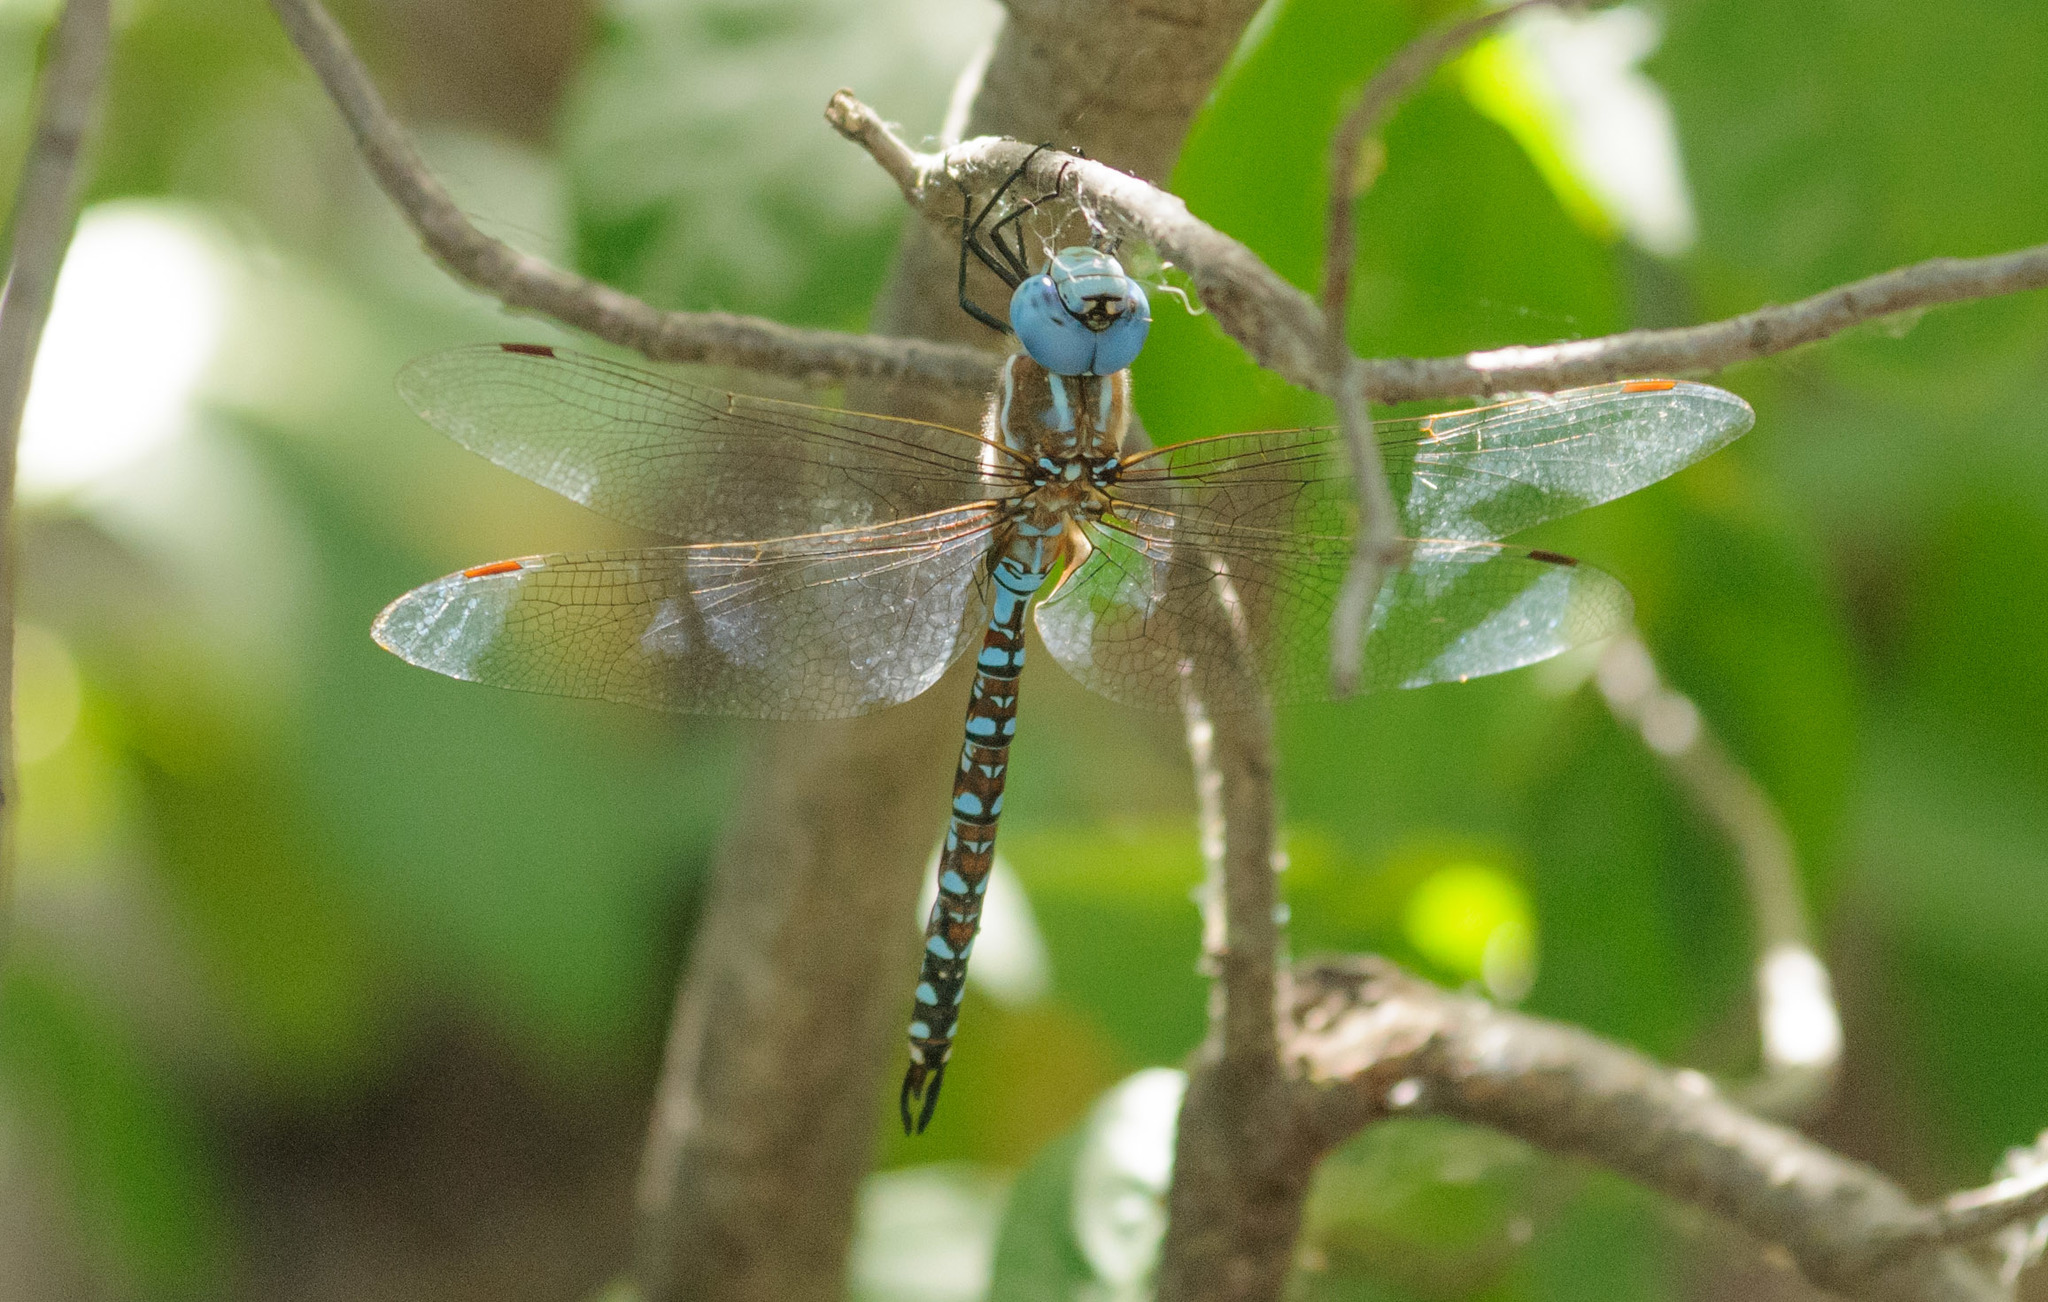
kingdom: Animalia
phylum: Arthropoda
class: Insecta
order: Odonata
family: Aeshnidae
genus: Rhionaeschna
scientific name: Rhionaeschna multicolor
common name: Blue-eyed darner
